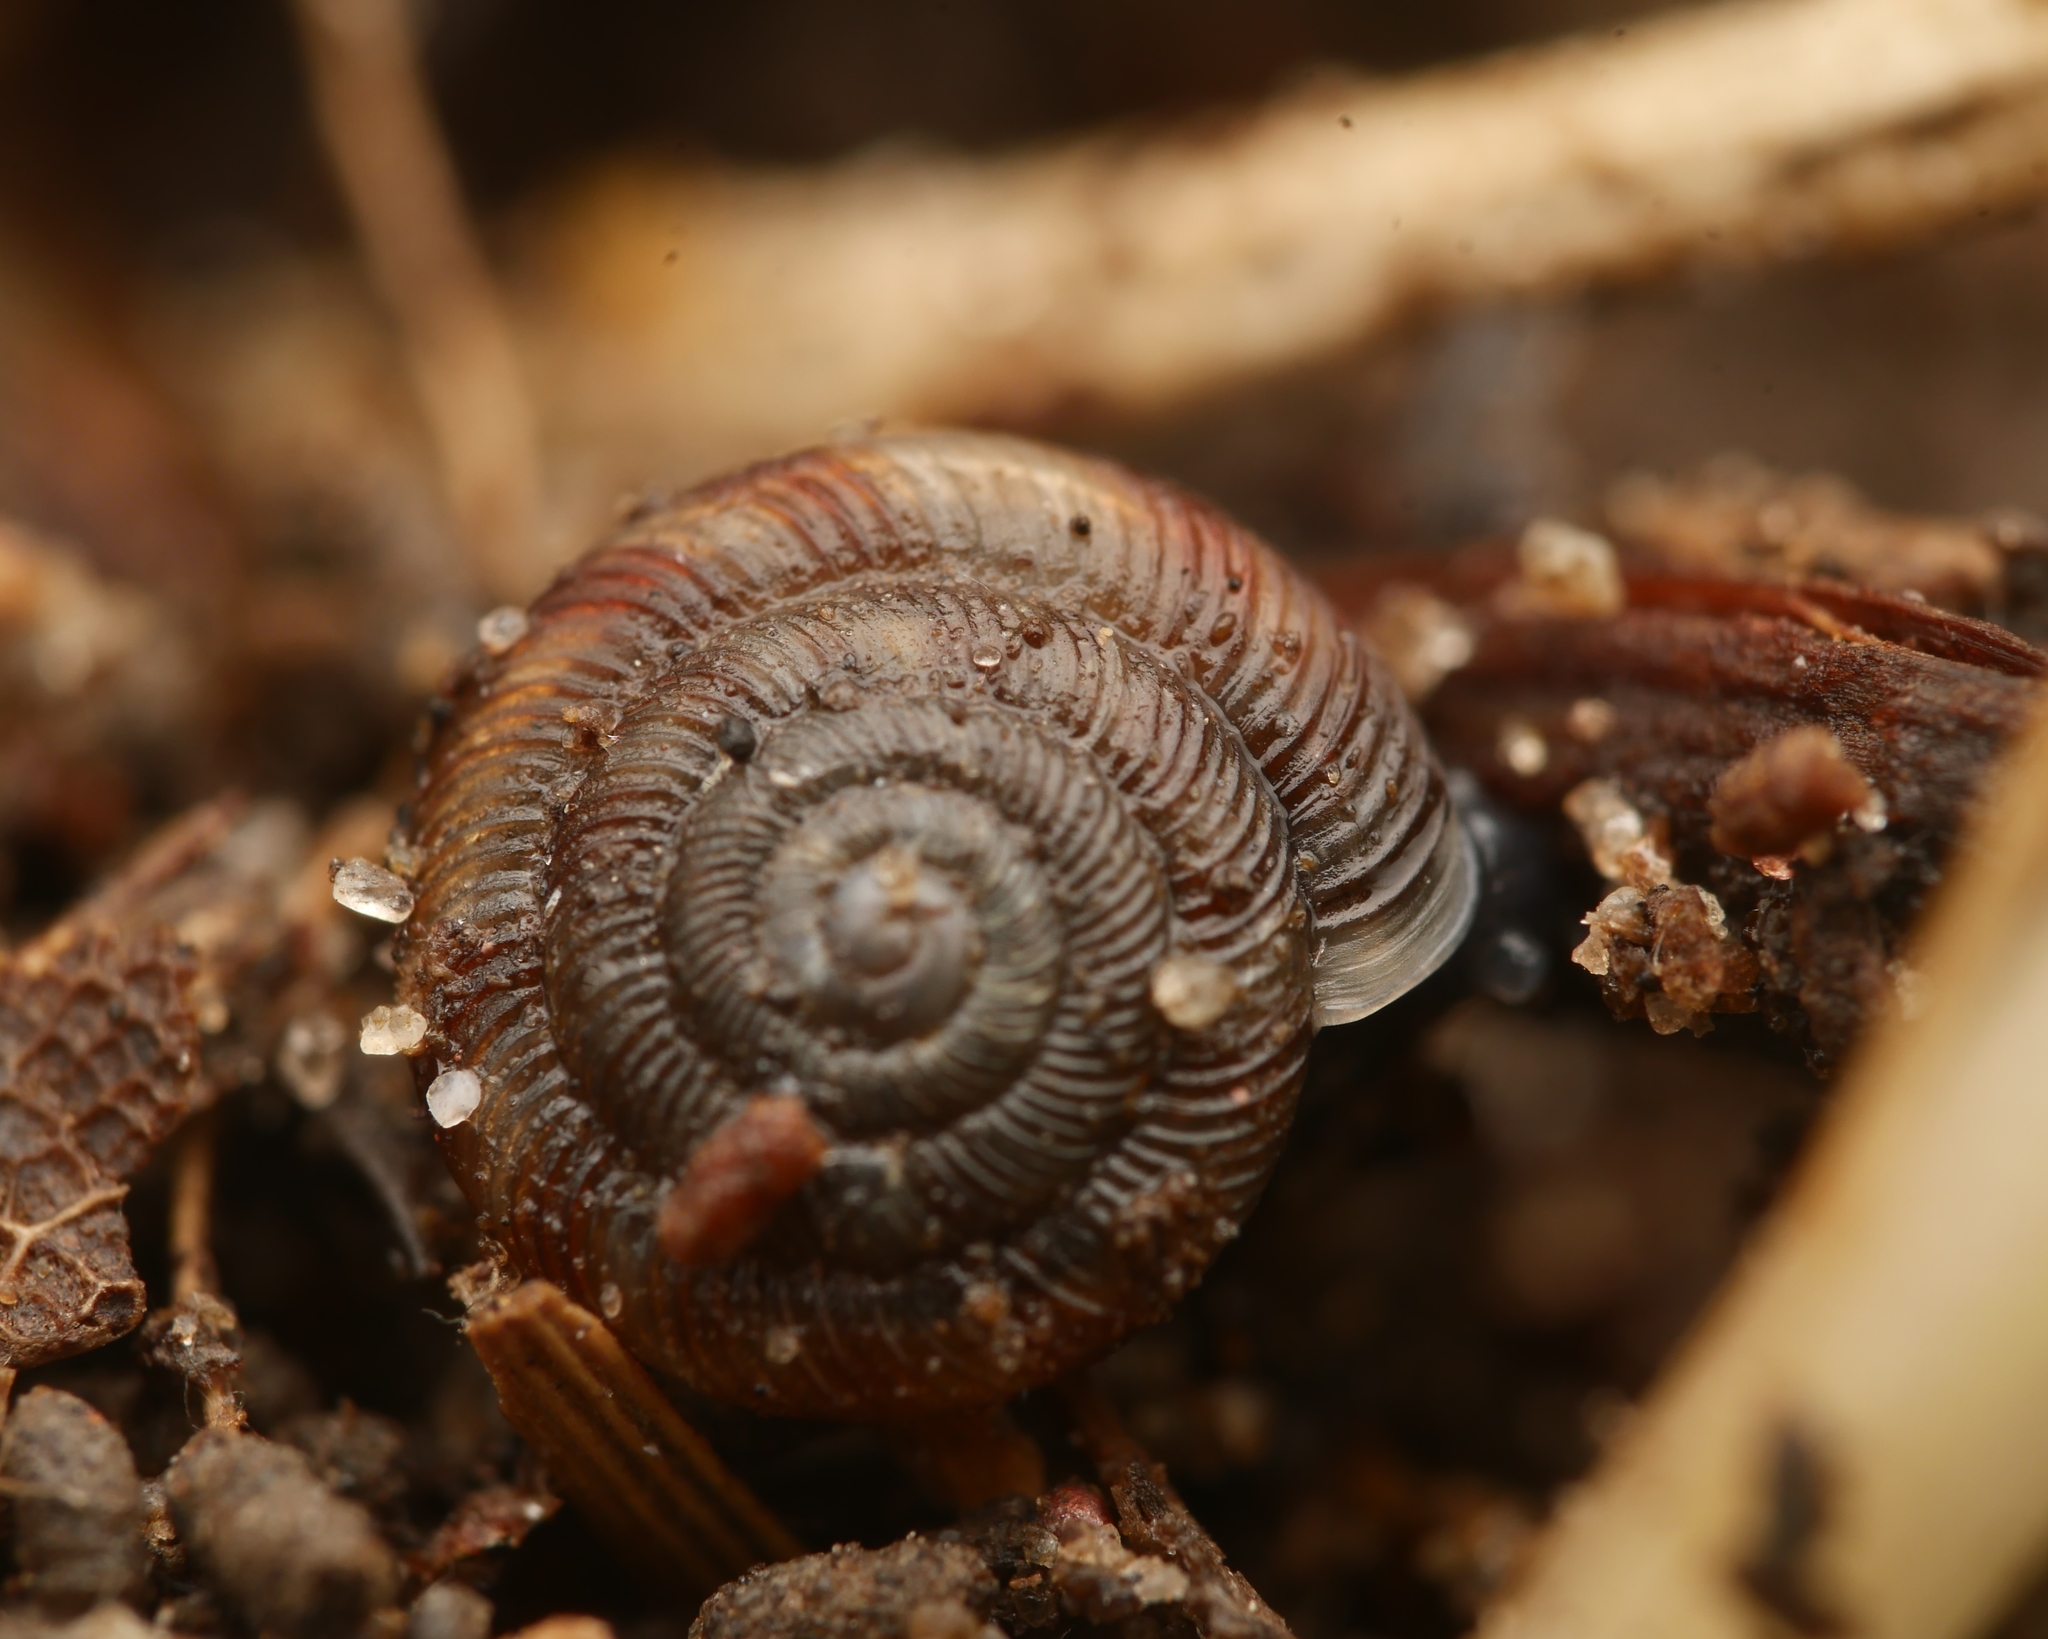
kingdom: Animalia
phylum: Mollusca
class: Gastropoda
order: Stylommatophora
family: Discidae
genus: Discus
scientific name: Discus rotundatus
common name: Rounded snail
